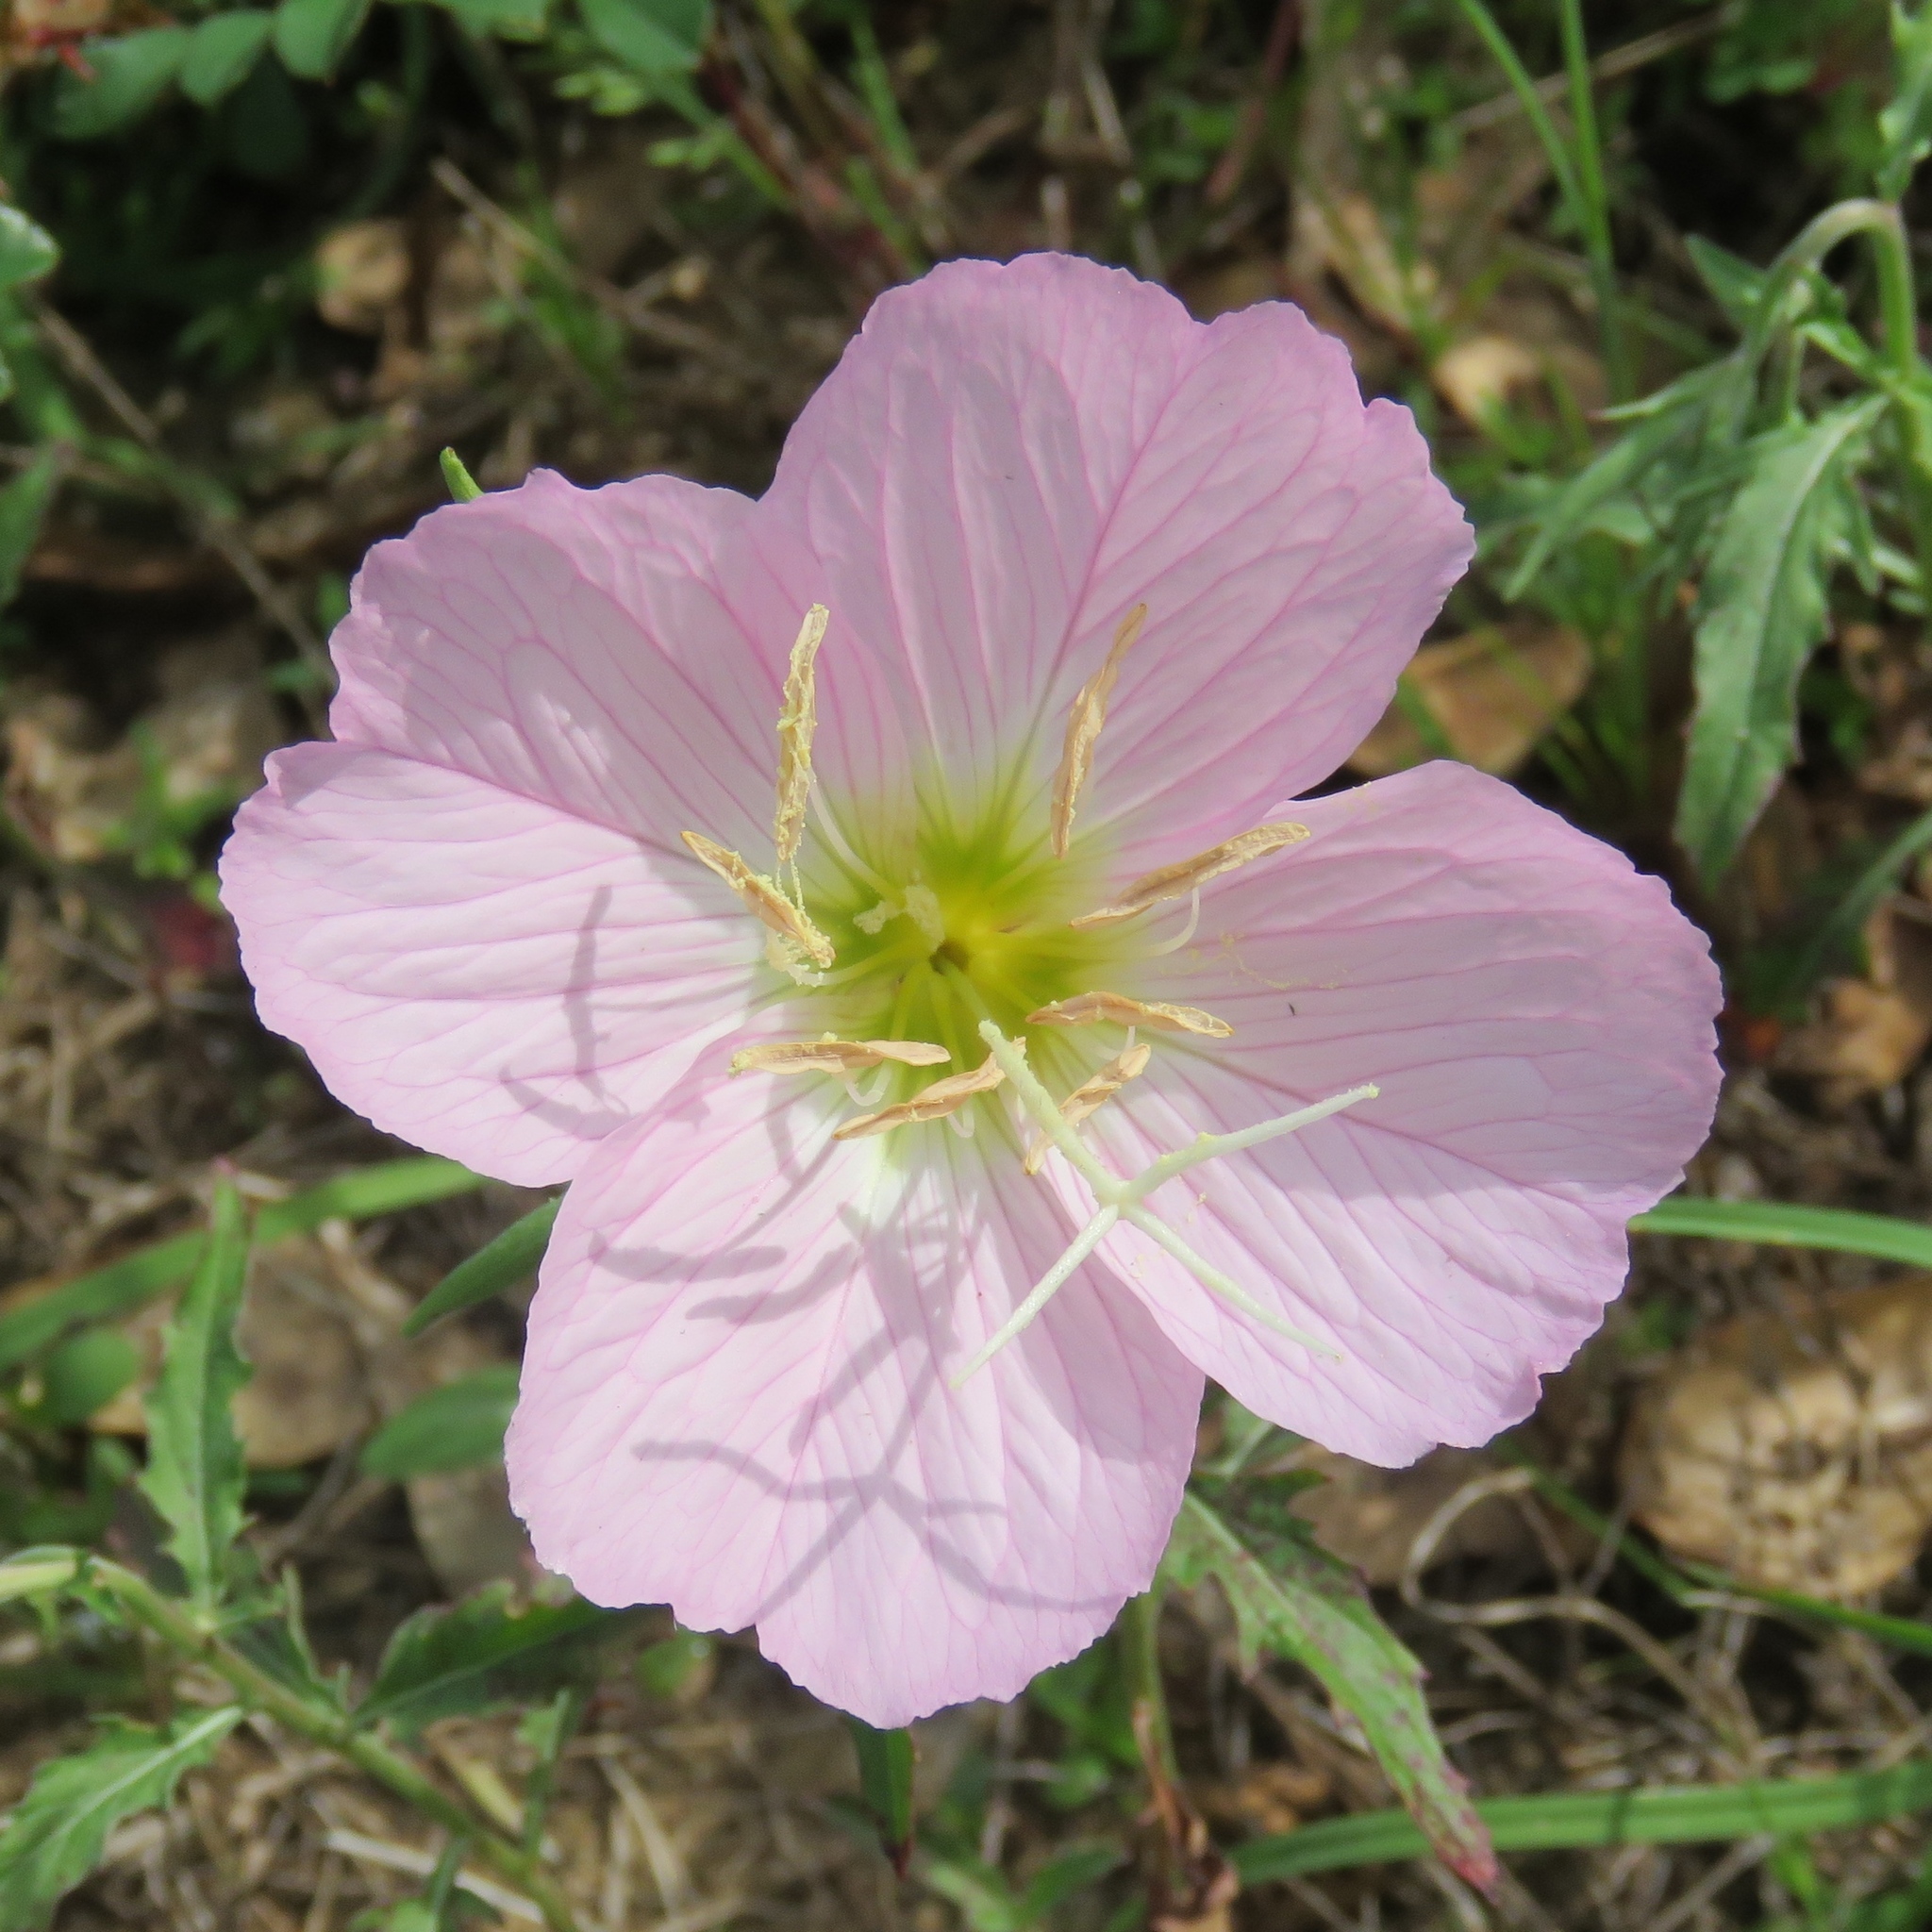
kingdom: Plantae
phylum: Tracheophyta
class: Magnoliopsida
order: Myrtales
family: Onagraceae
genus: Oenothera
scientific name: Oenothera speciosa
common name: White evening-primrose
